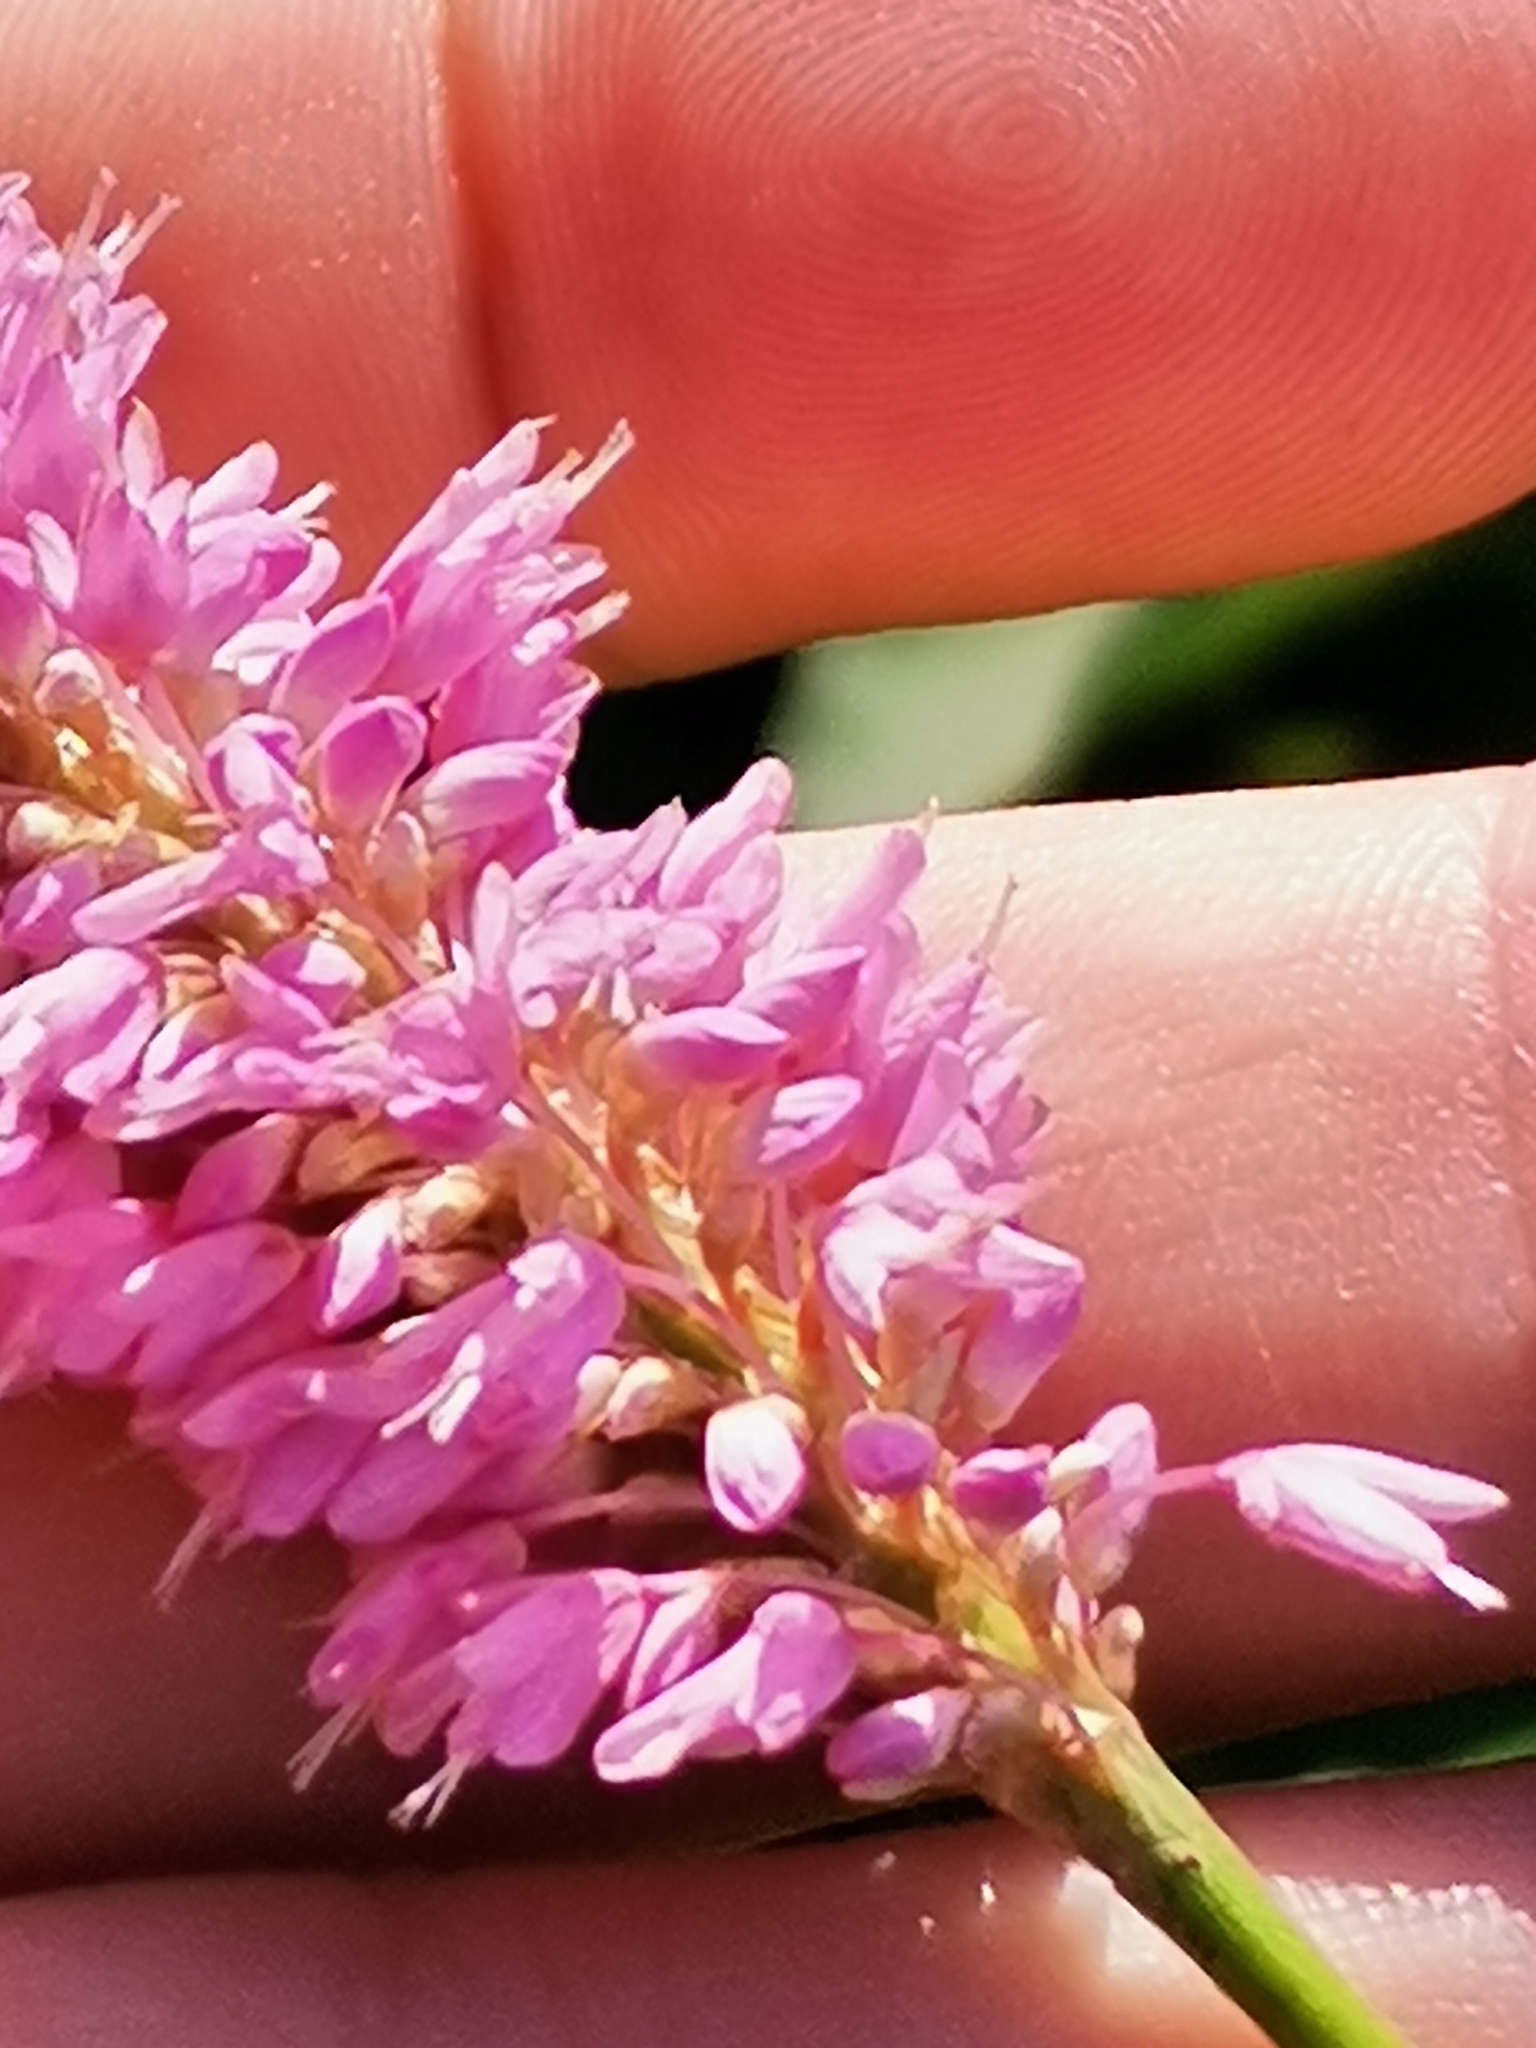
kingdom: Plantae
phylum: Tracheophyta
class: Magnoliopsida
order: Caryophyllales
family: Polygonaceae
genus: Bistorta
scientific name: Bistorta officinalis
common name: Common bistort
